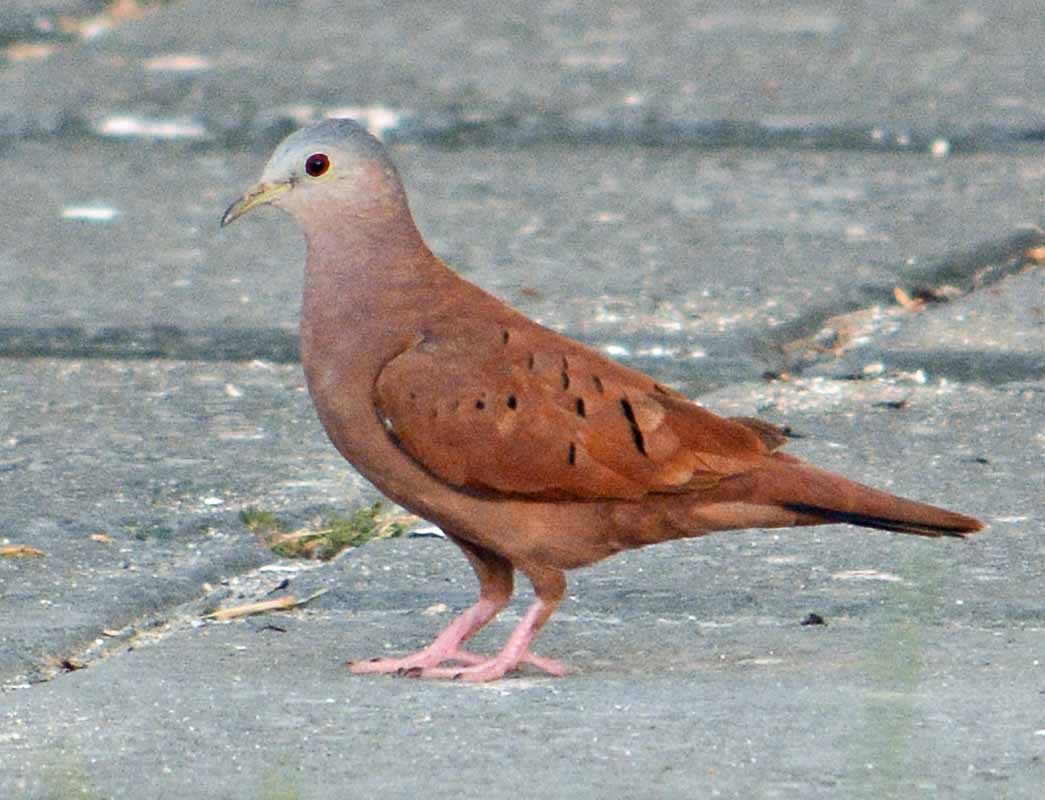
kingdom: Animalia
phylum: Chordata
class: Aves
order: Columbiformes
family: Columbidae
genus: Columbina
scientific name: Columbina talpacoti
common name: Ruddy ground dove
